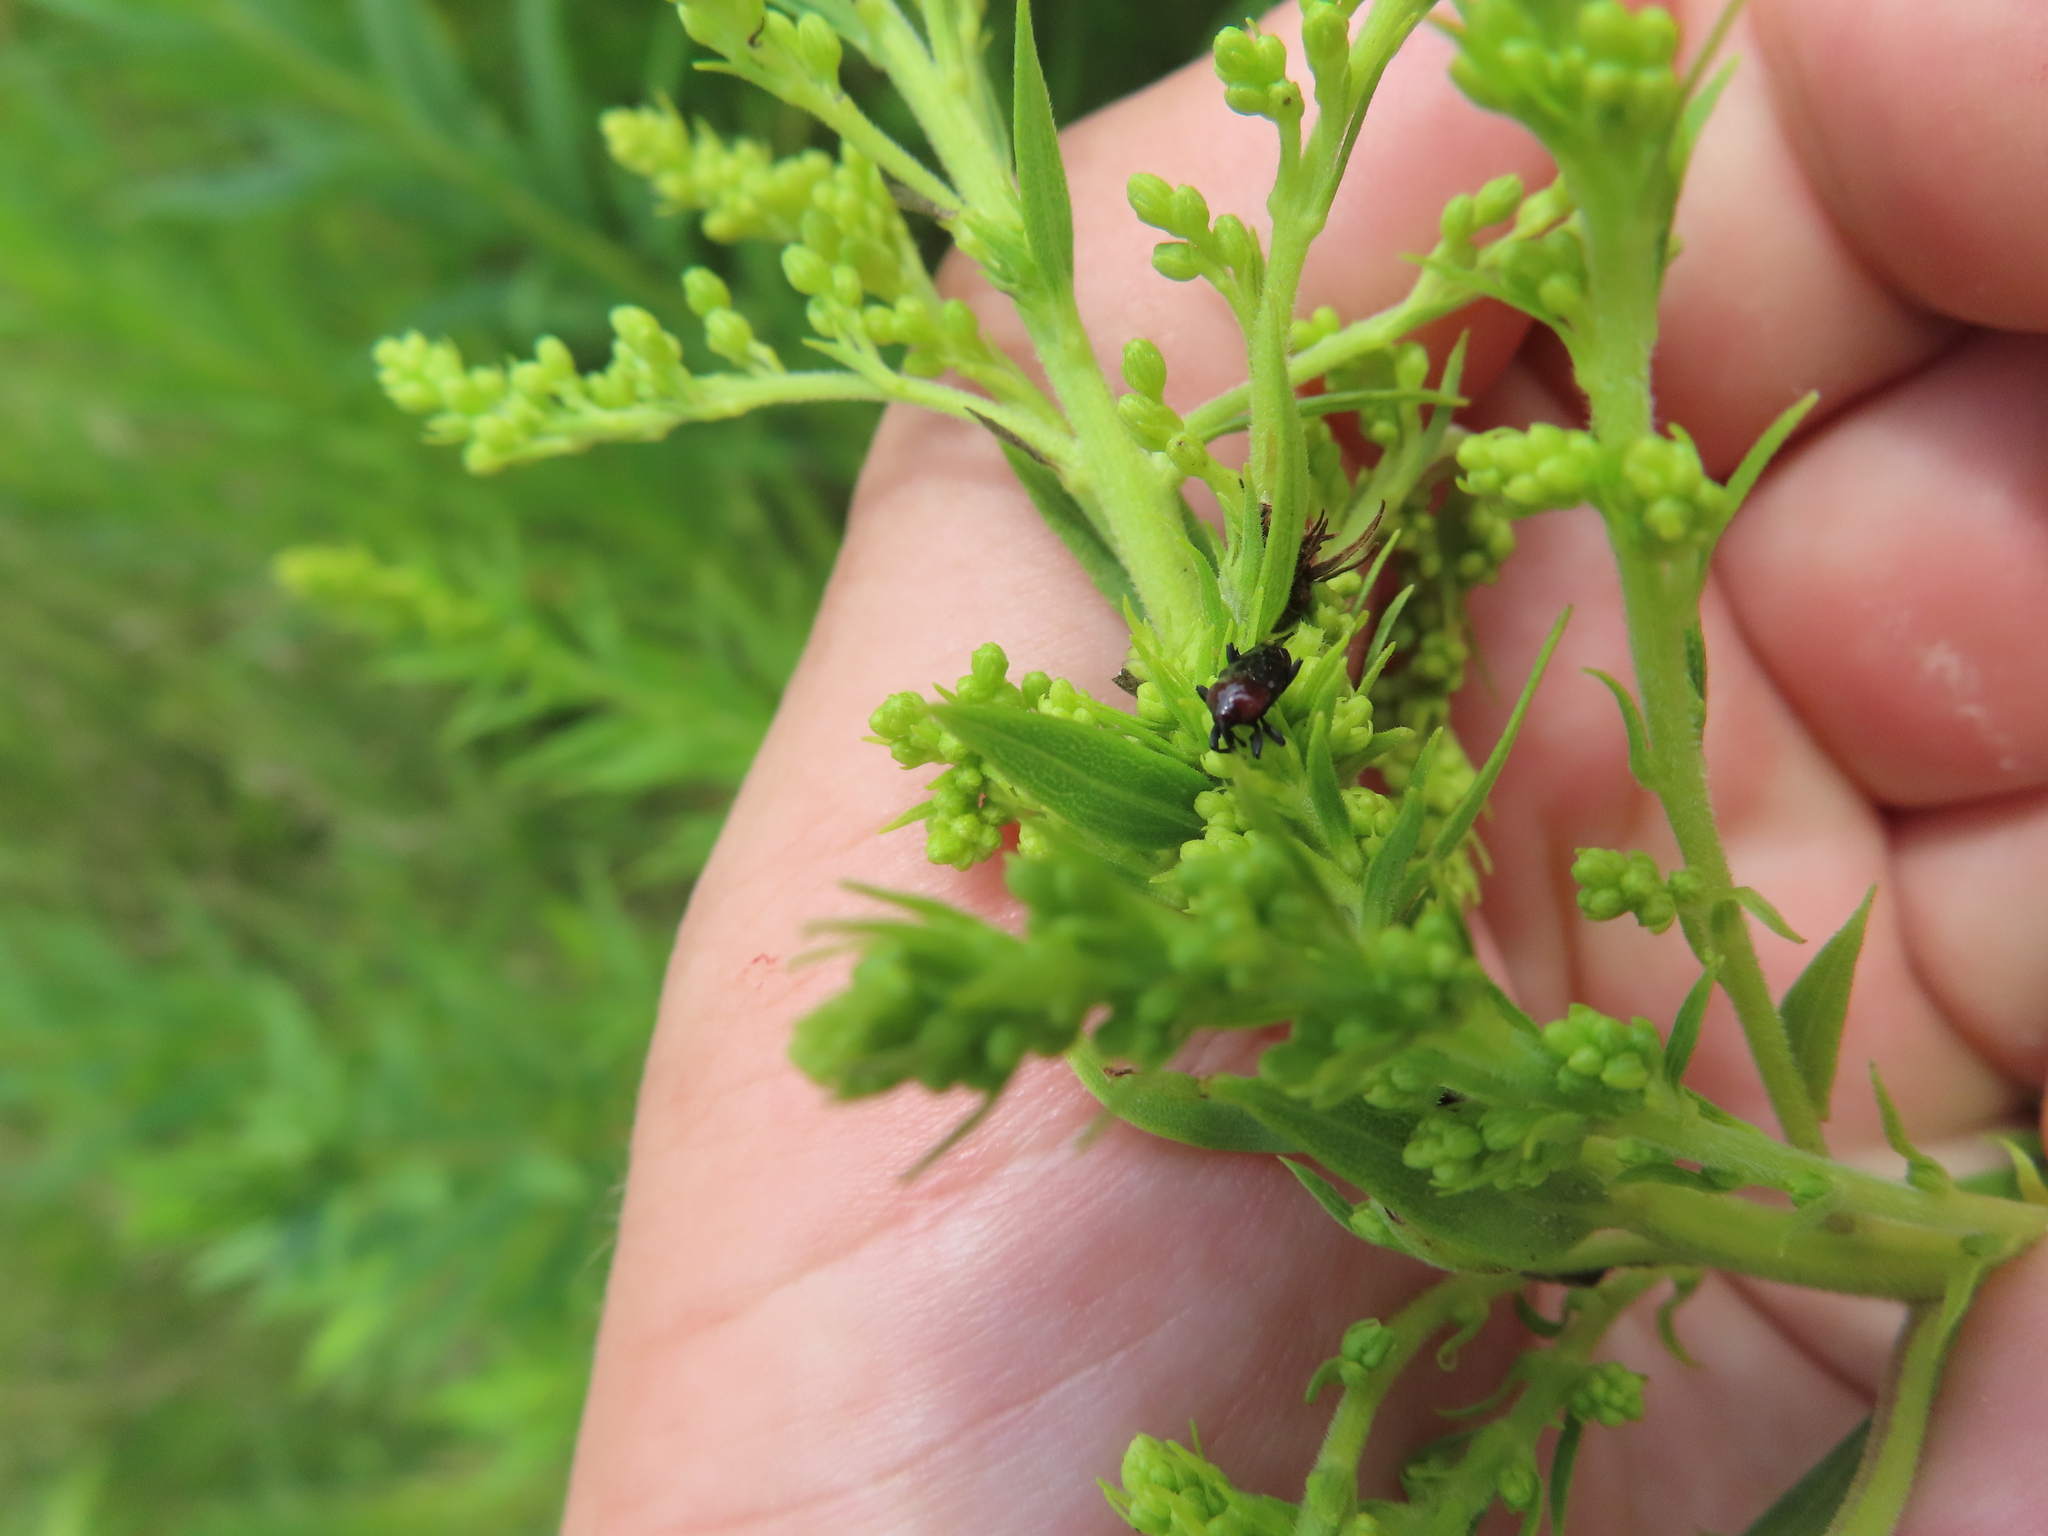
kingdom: Animalia
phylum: Arthropoda
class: Insecta
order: Coleoptera
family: Curculionidae
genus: Madarellus
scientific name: Madarellus undulatus
